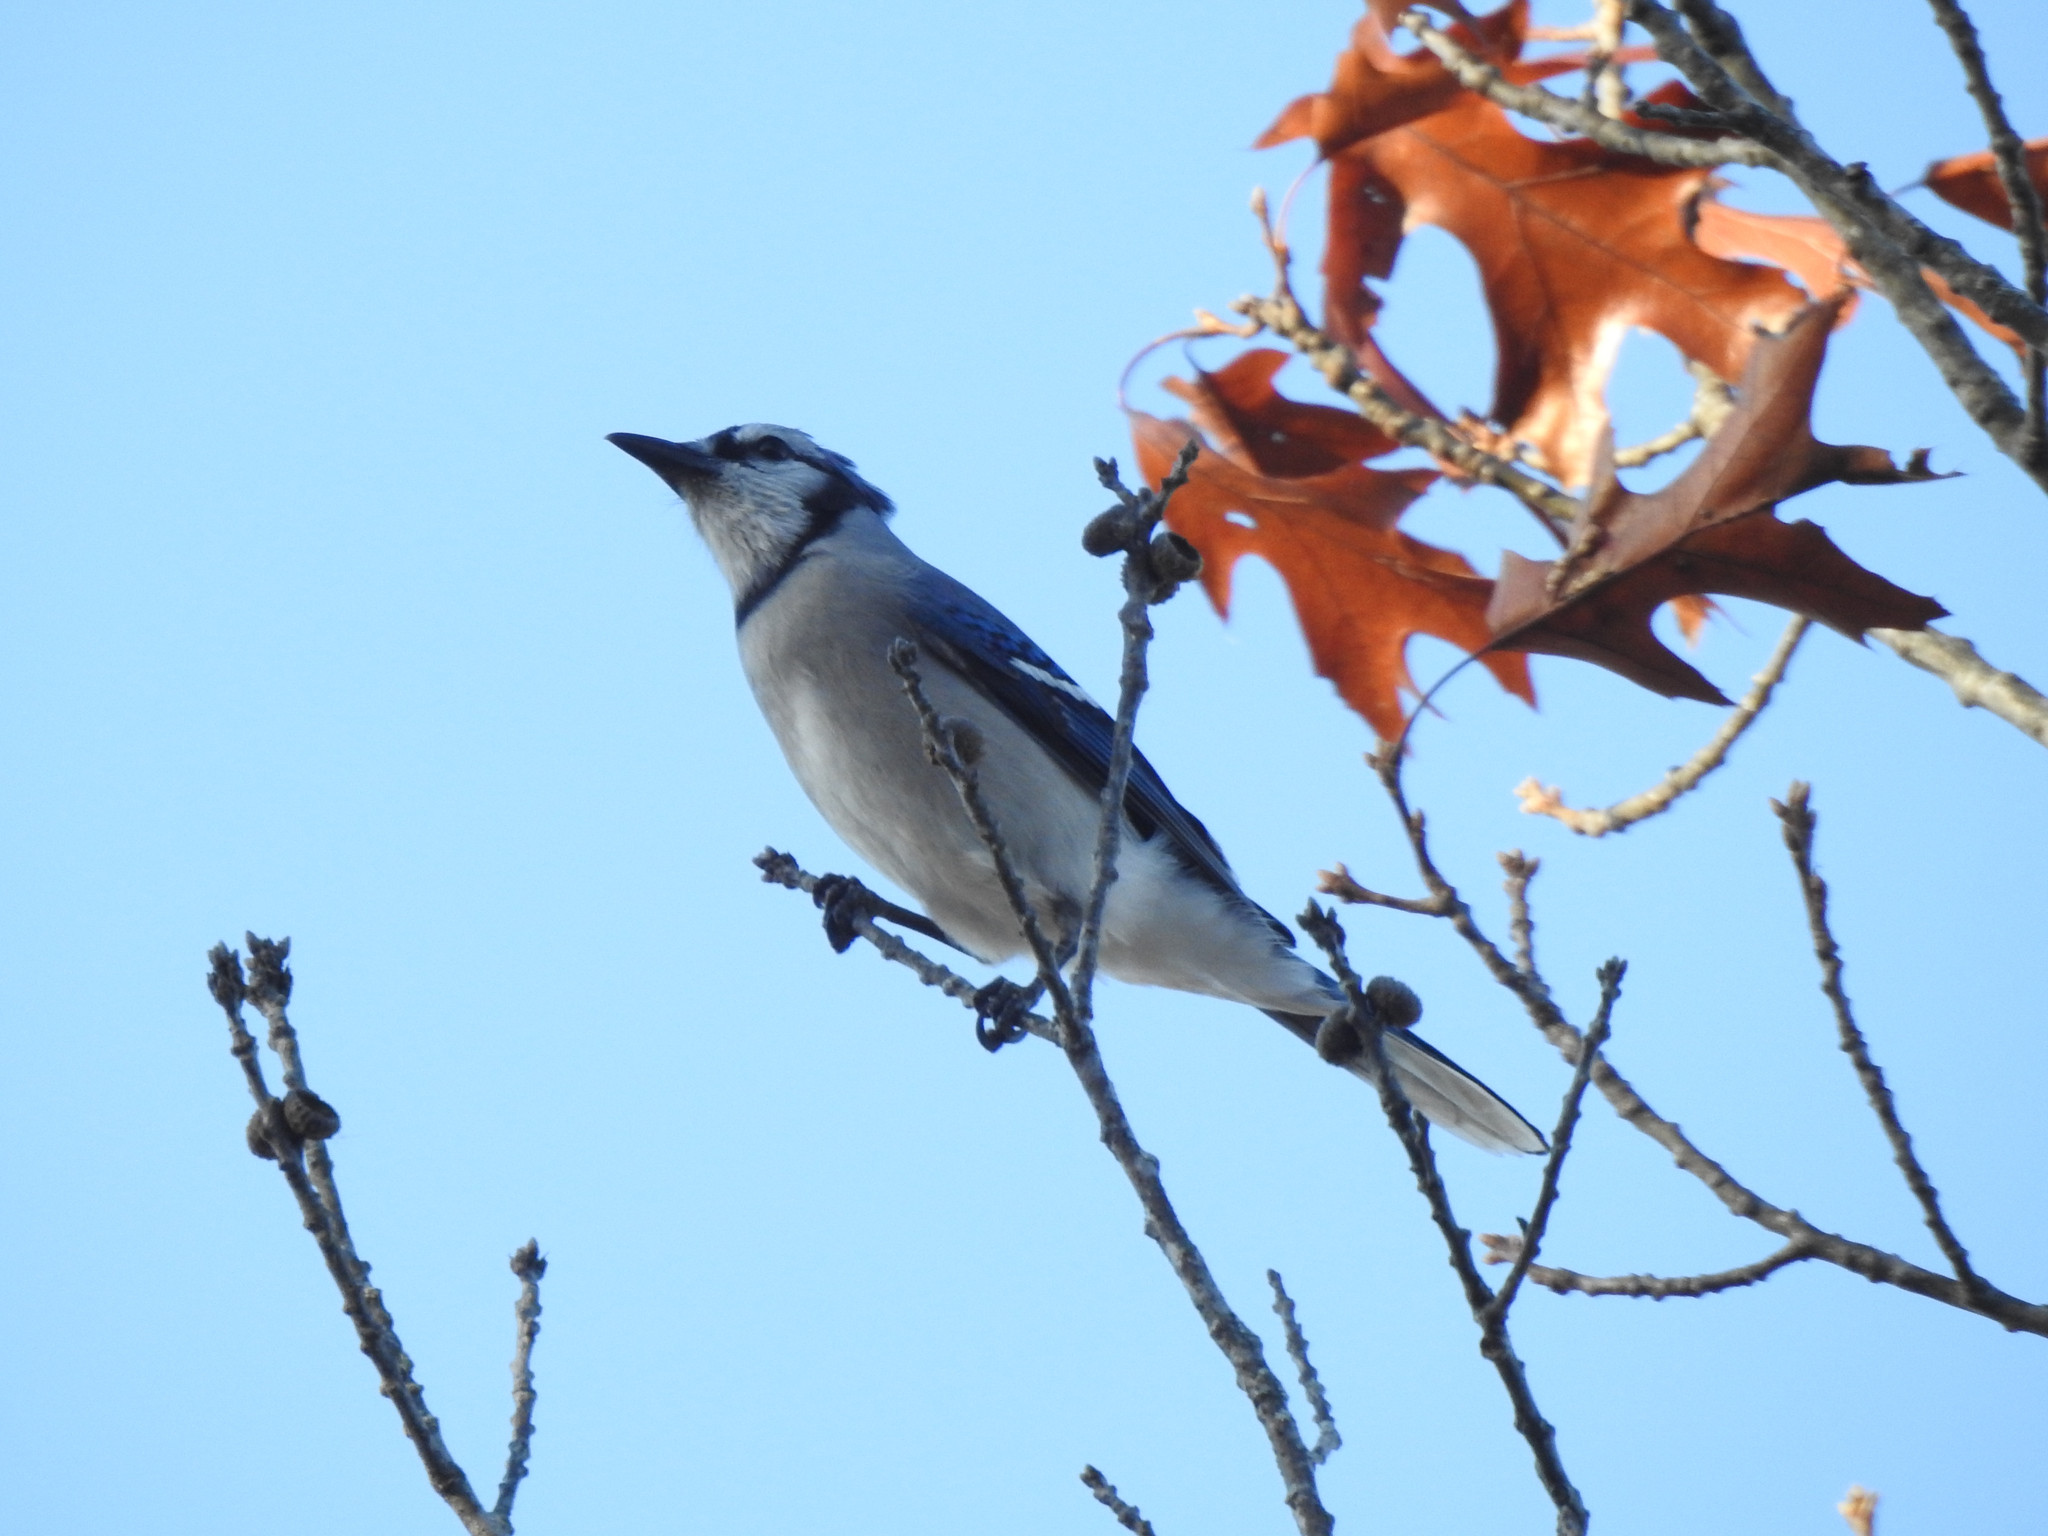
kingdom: Animalia
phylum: Chordata
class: Aves
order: Passeriformes
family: Corvidae
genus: Cyanocitta
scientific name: Cyanocitta cristata
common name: Blue jay
